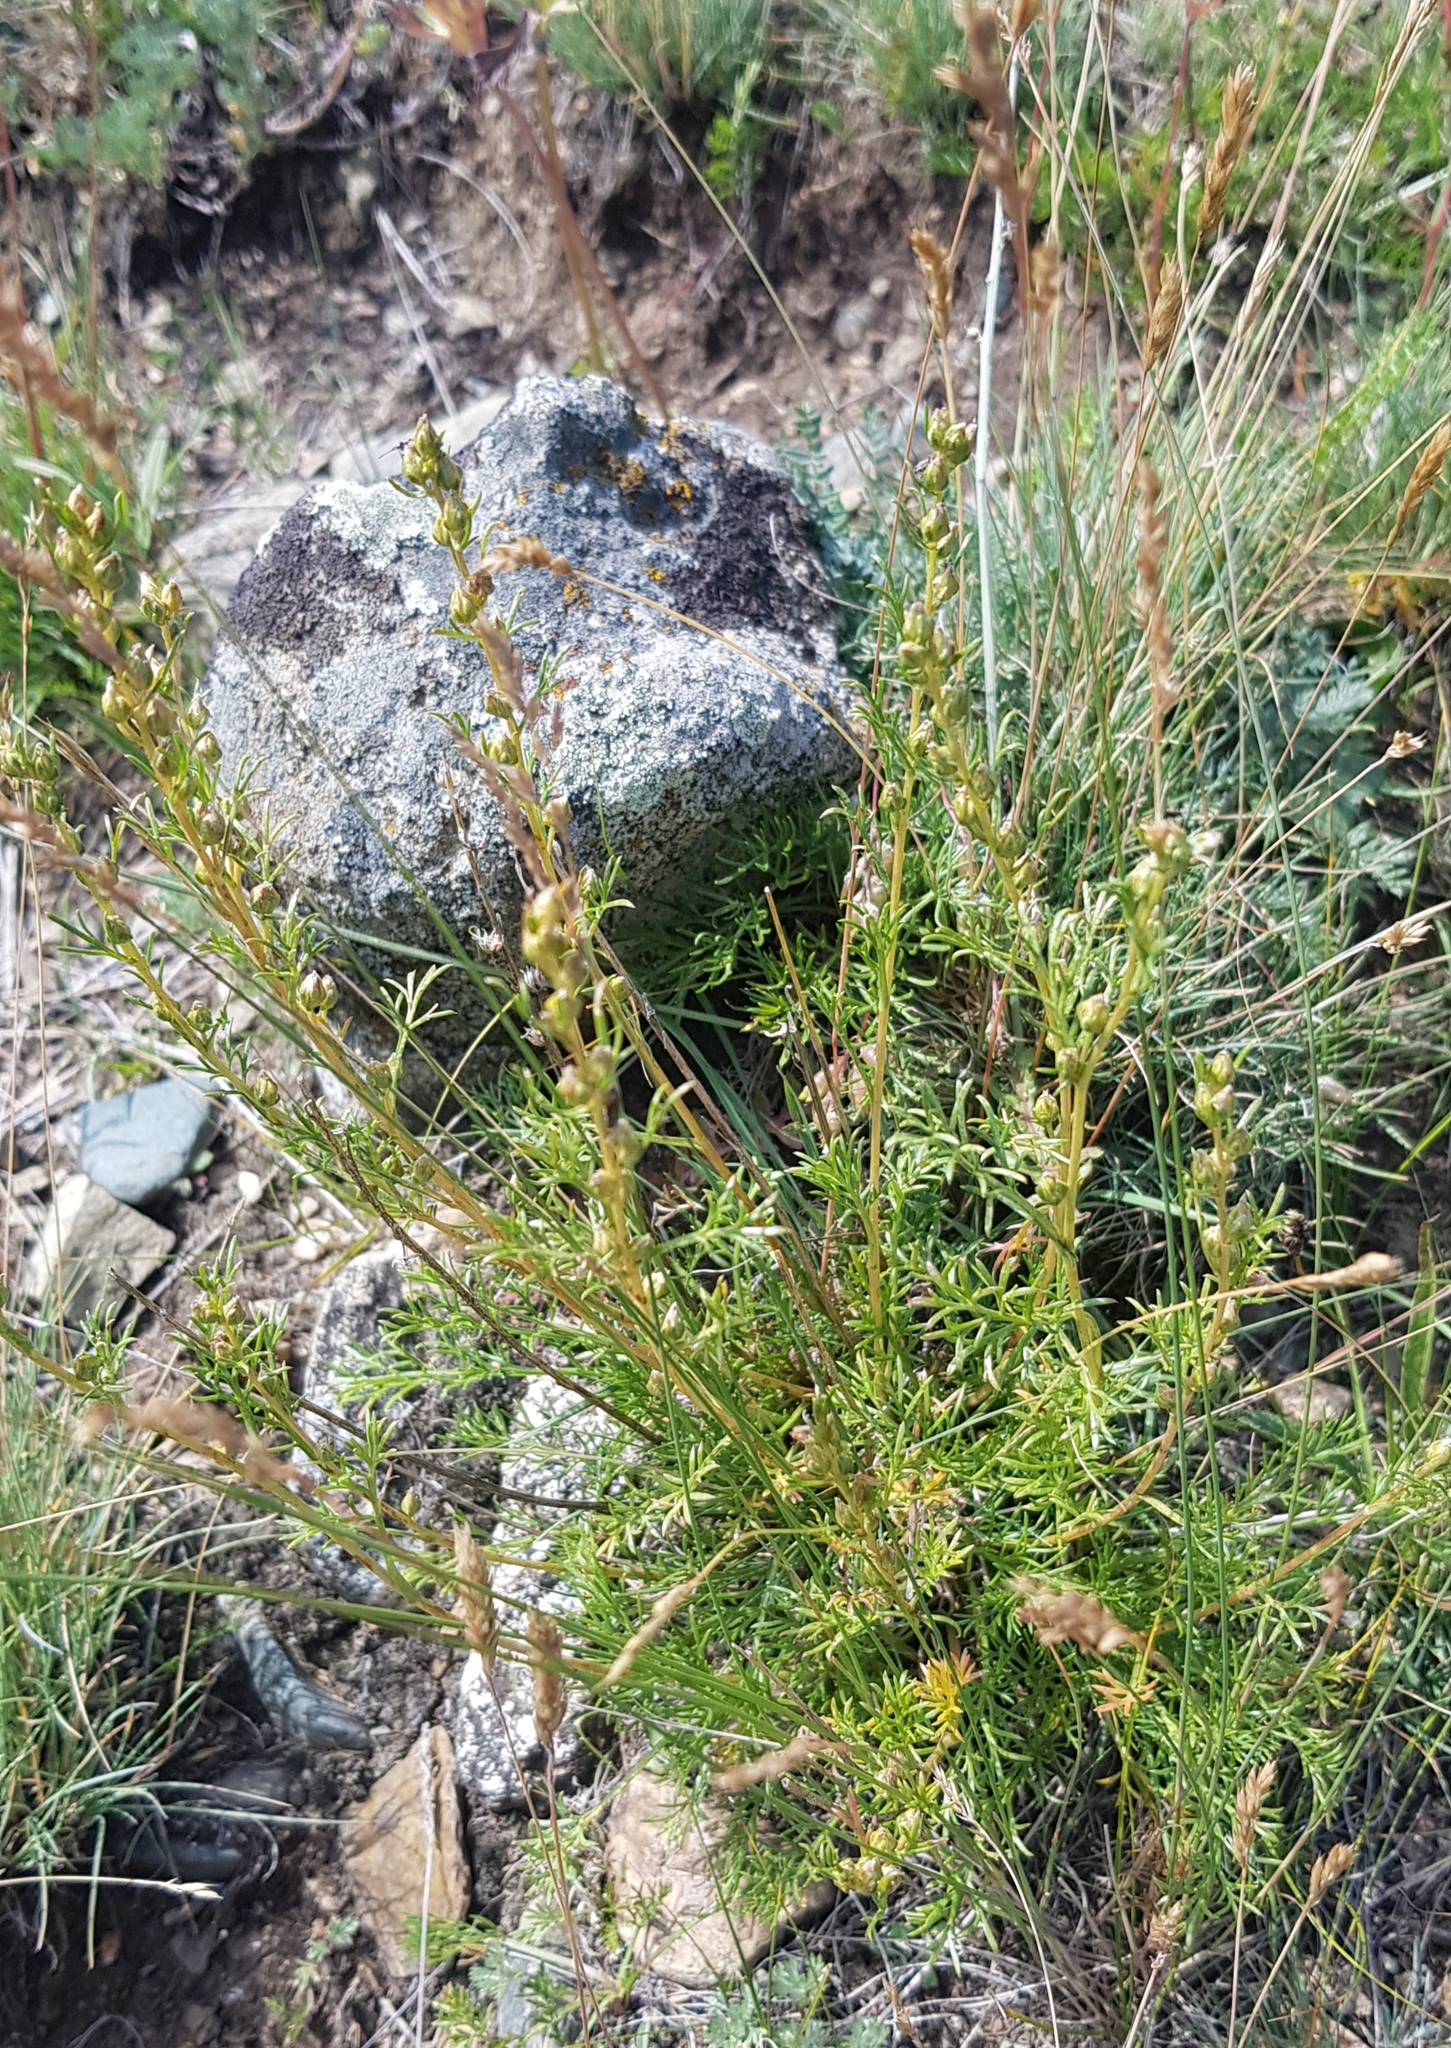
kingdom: Plantae
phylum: Tracheophyta
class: Magnoliopsida
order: Asterales
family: Asteraceae
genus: Artemisia
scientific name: Artemisia pubescens
